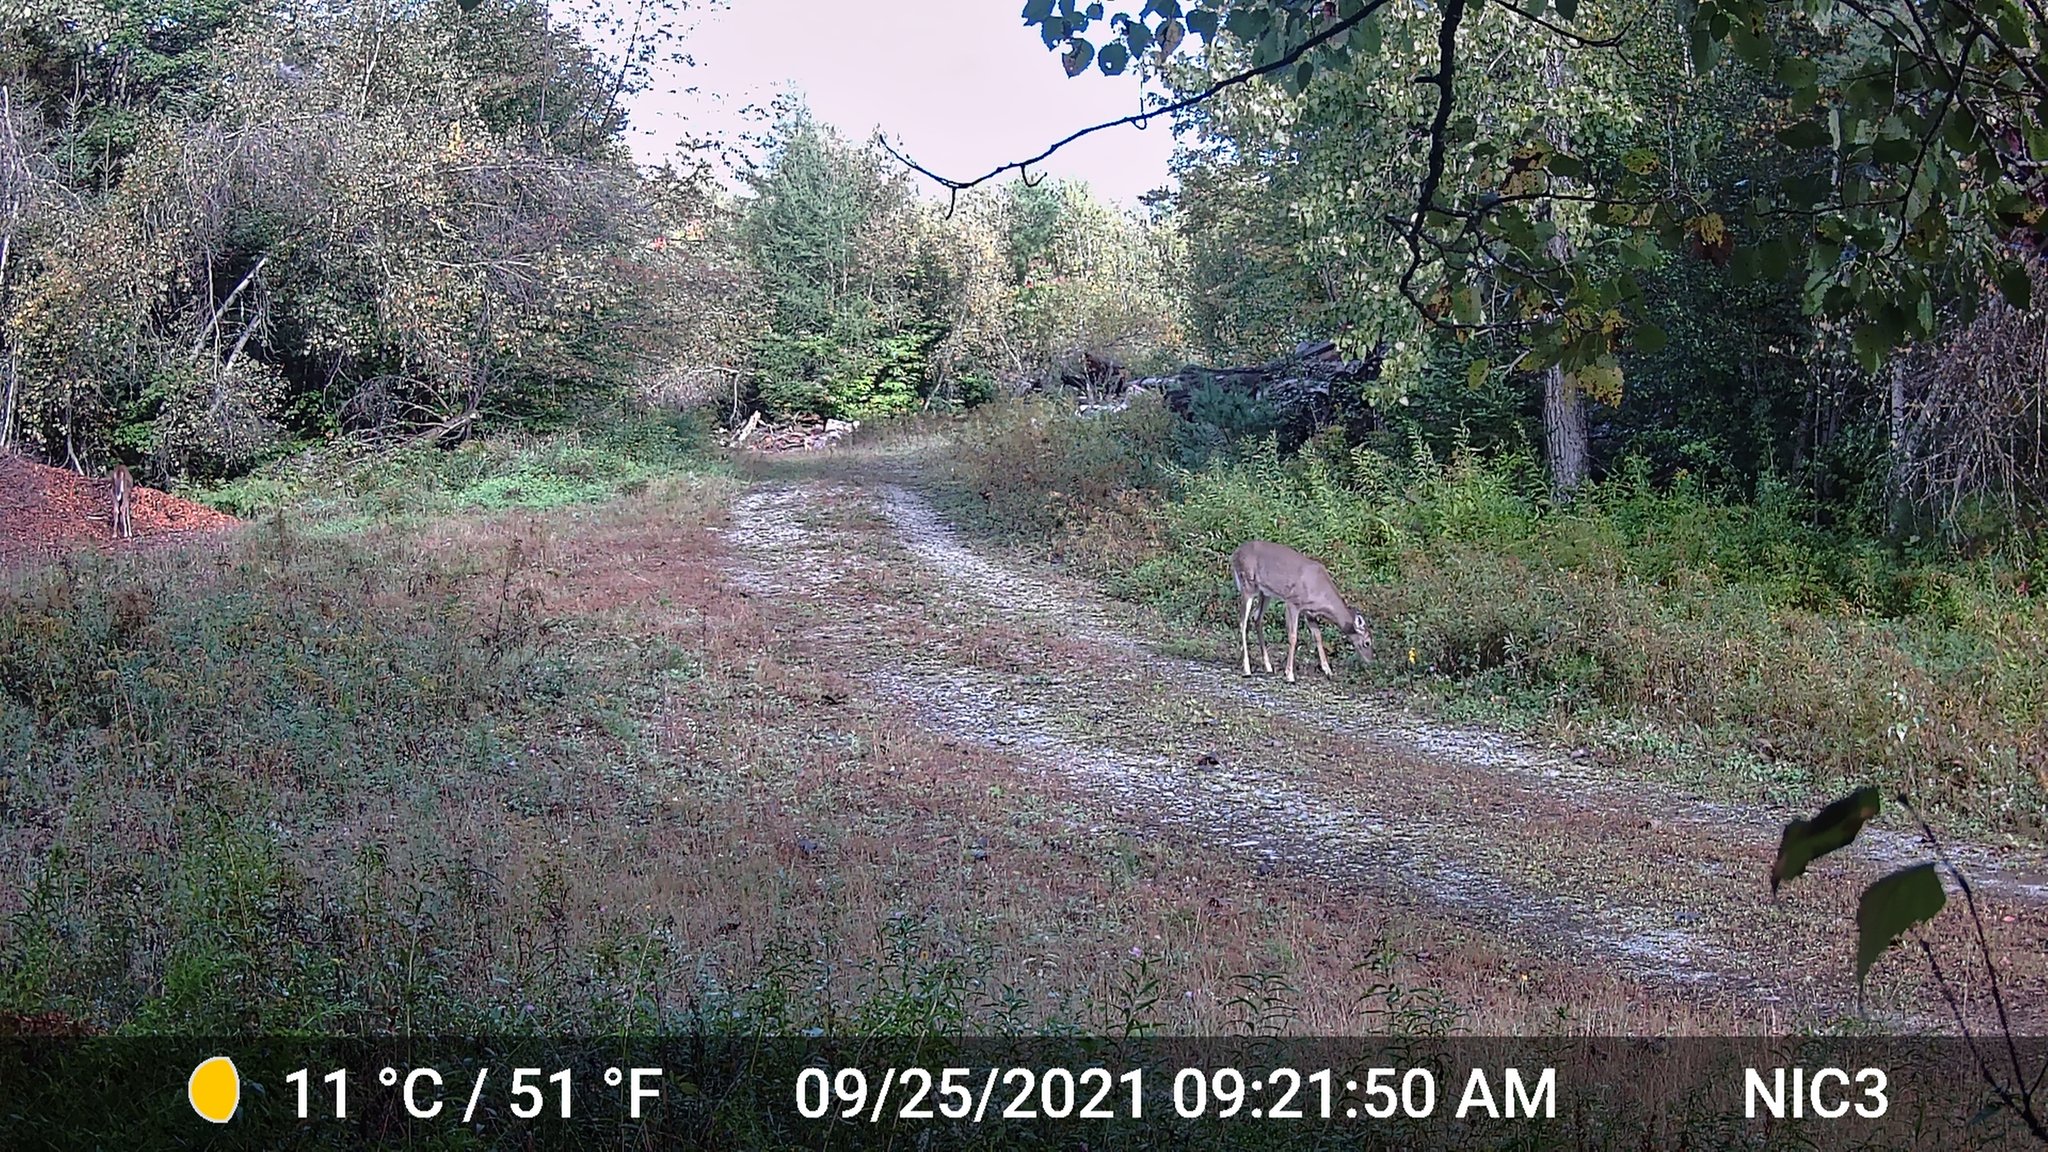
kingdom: Animalia
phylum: Chordata
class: Mammalia
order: Artiodactyla
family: Cervidae
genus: Odocoileus
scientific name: Odocoileus virginianus
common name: White-tailed deer
